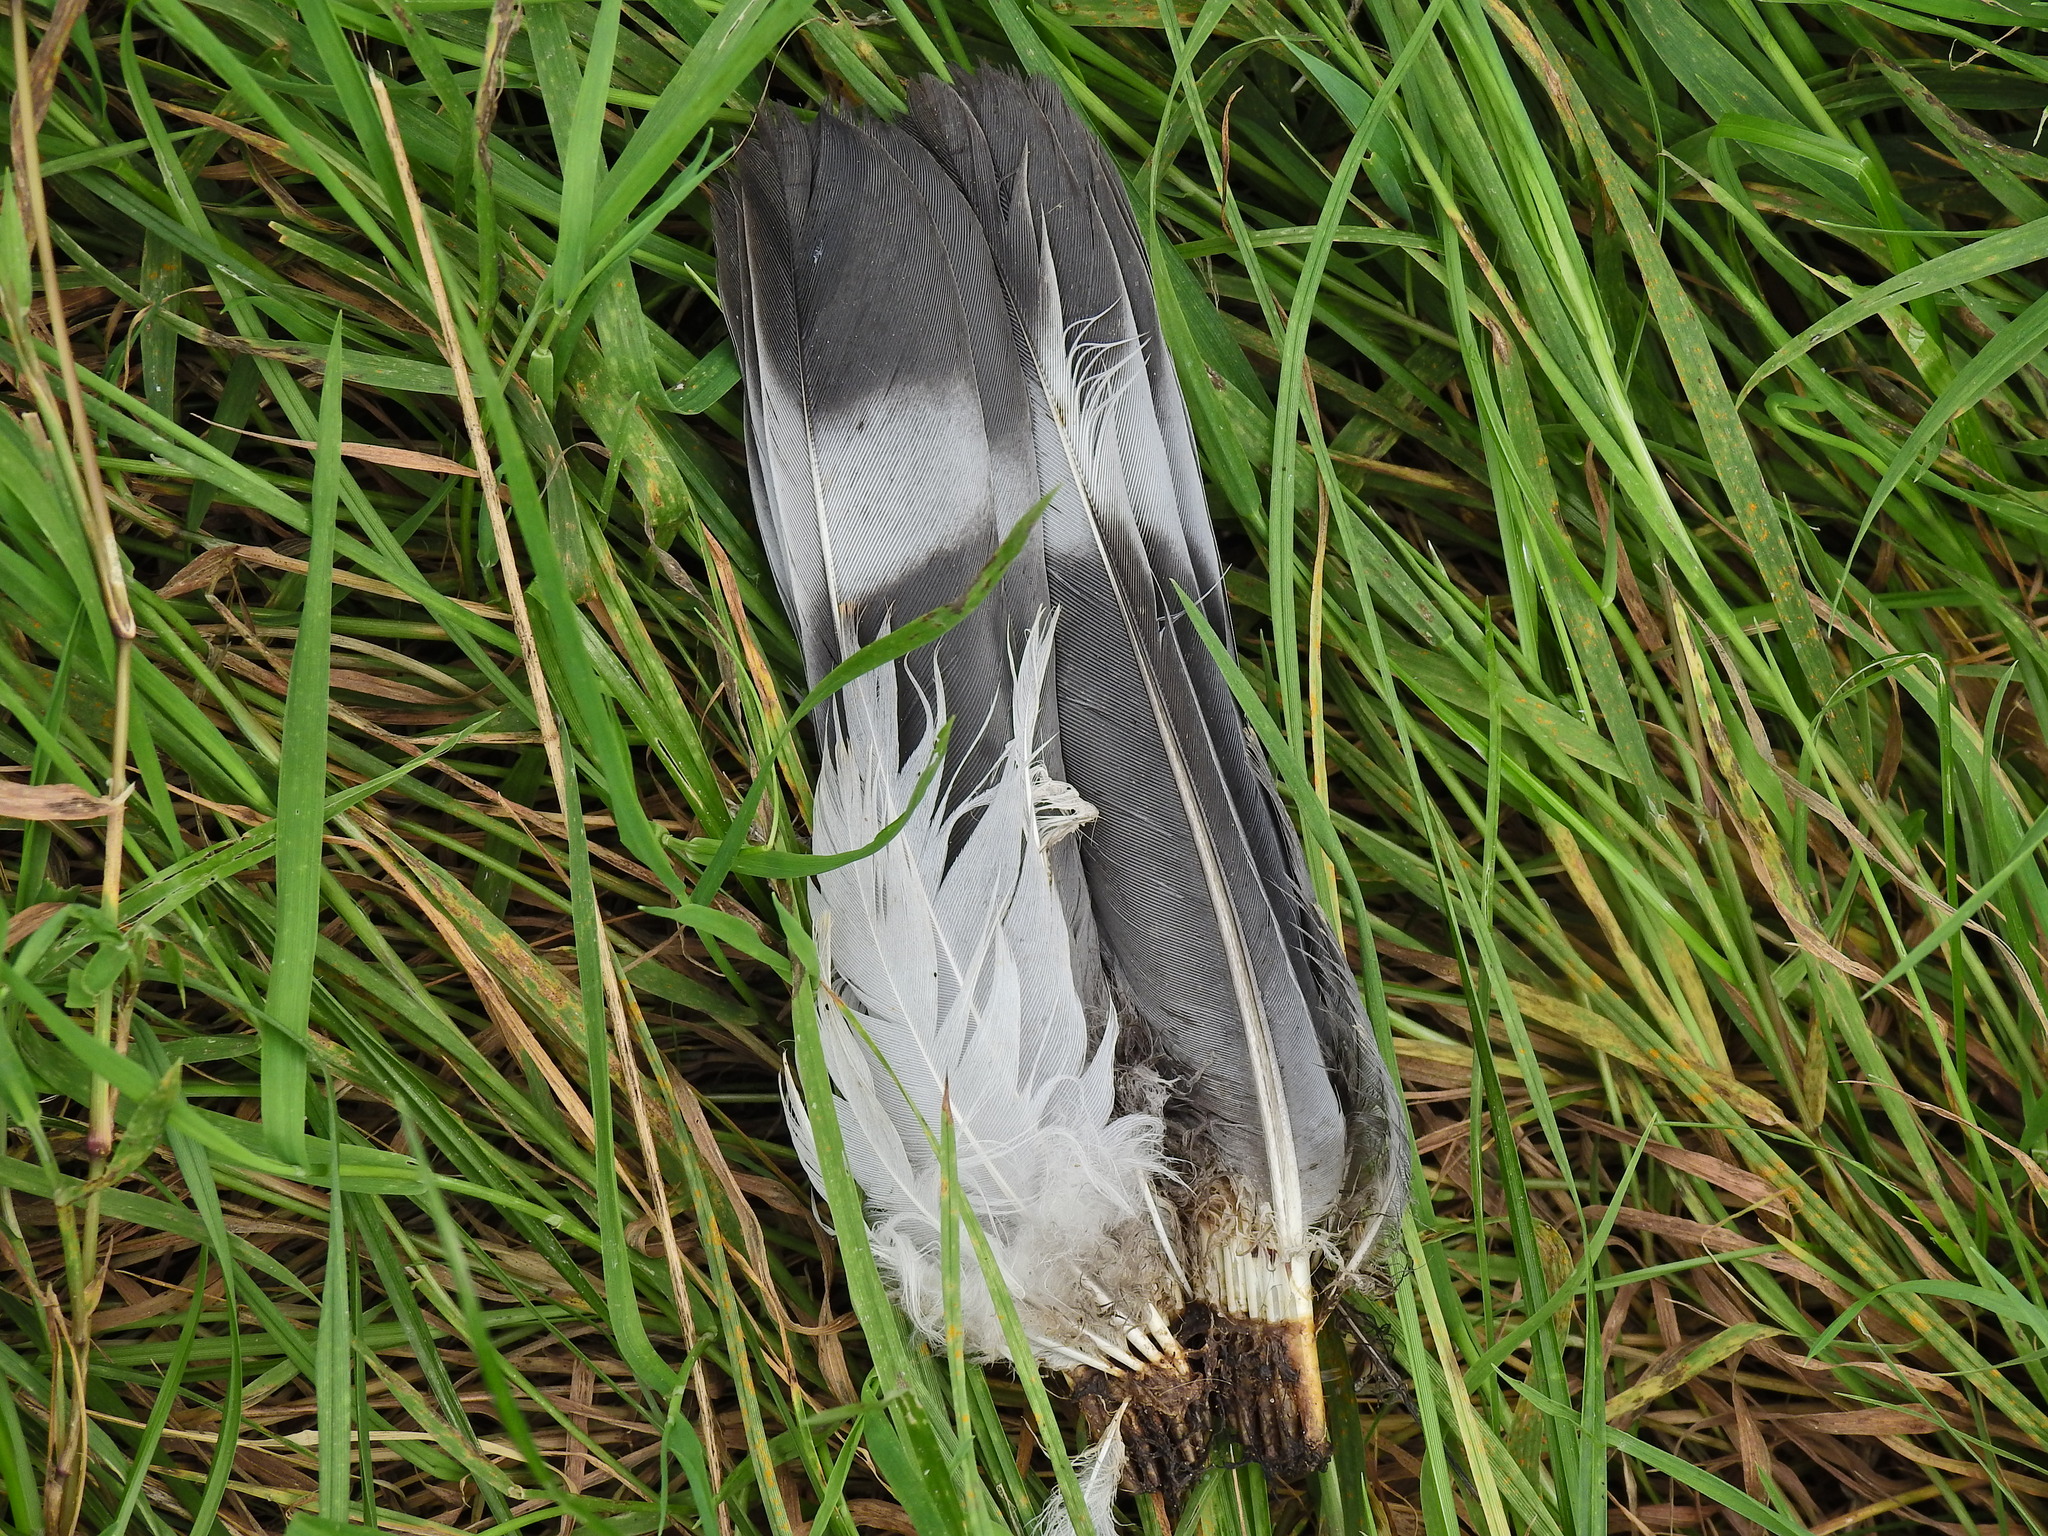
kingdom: Animalia
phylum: Chordata
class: Aves
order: Columbiformes
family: Columbidae
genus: Columba
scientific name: Columba palumbus
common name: Common wood pigeon
